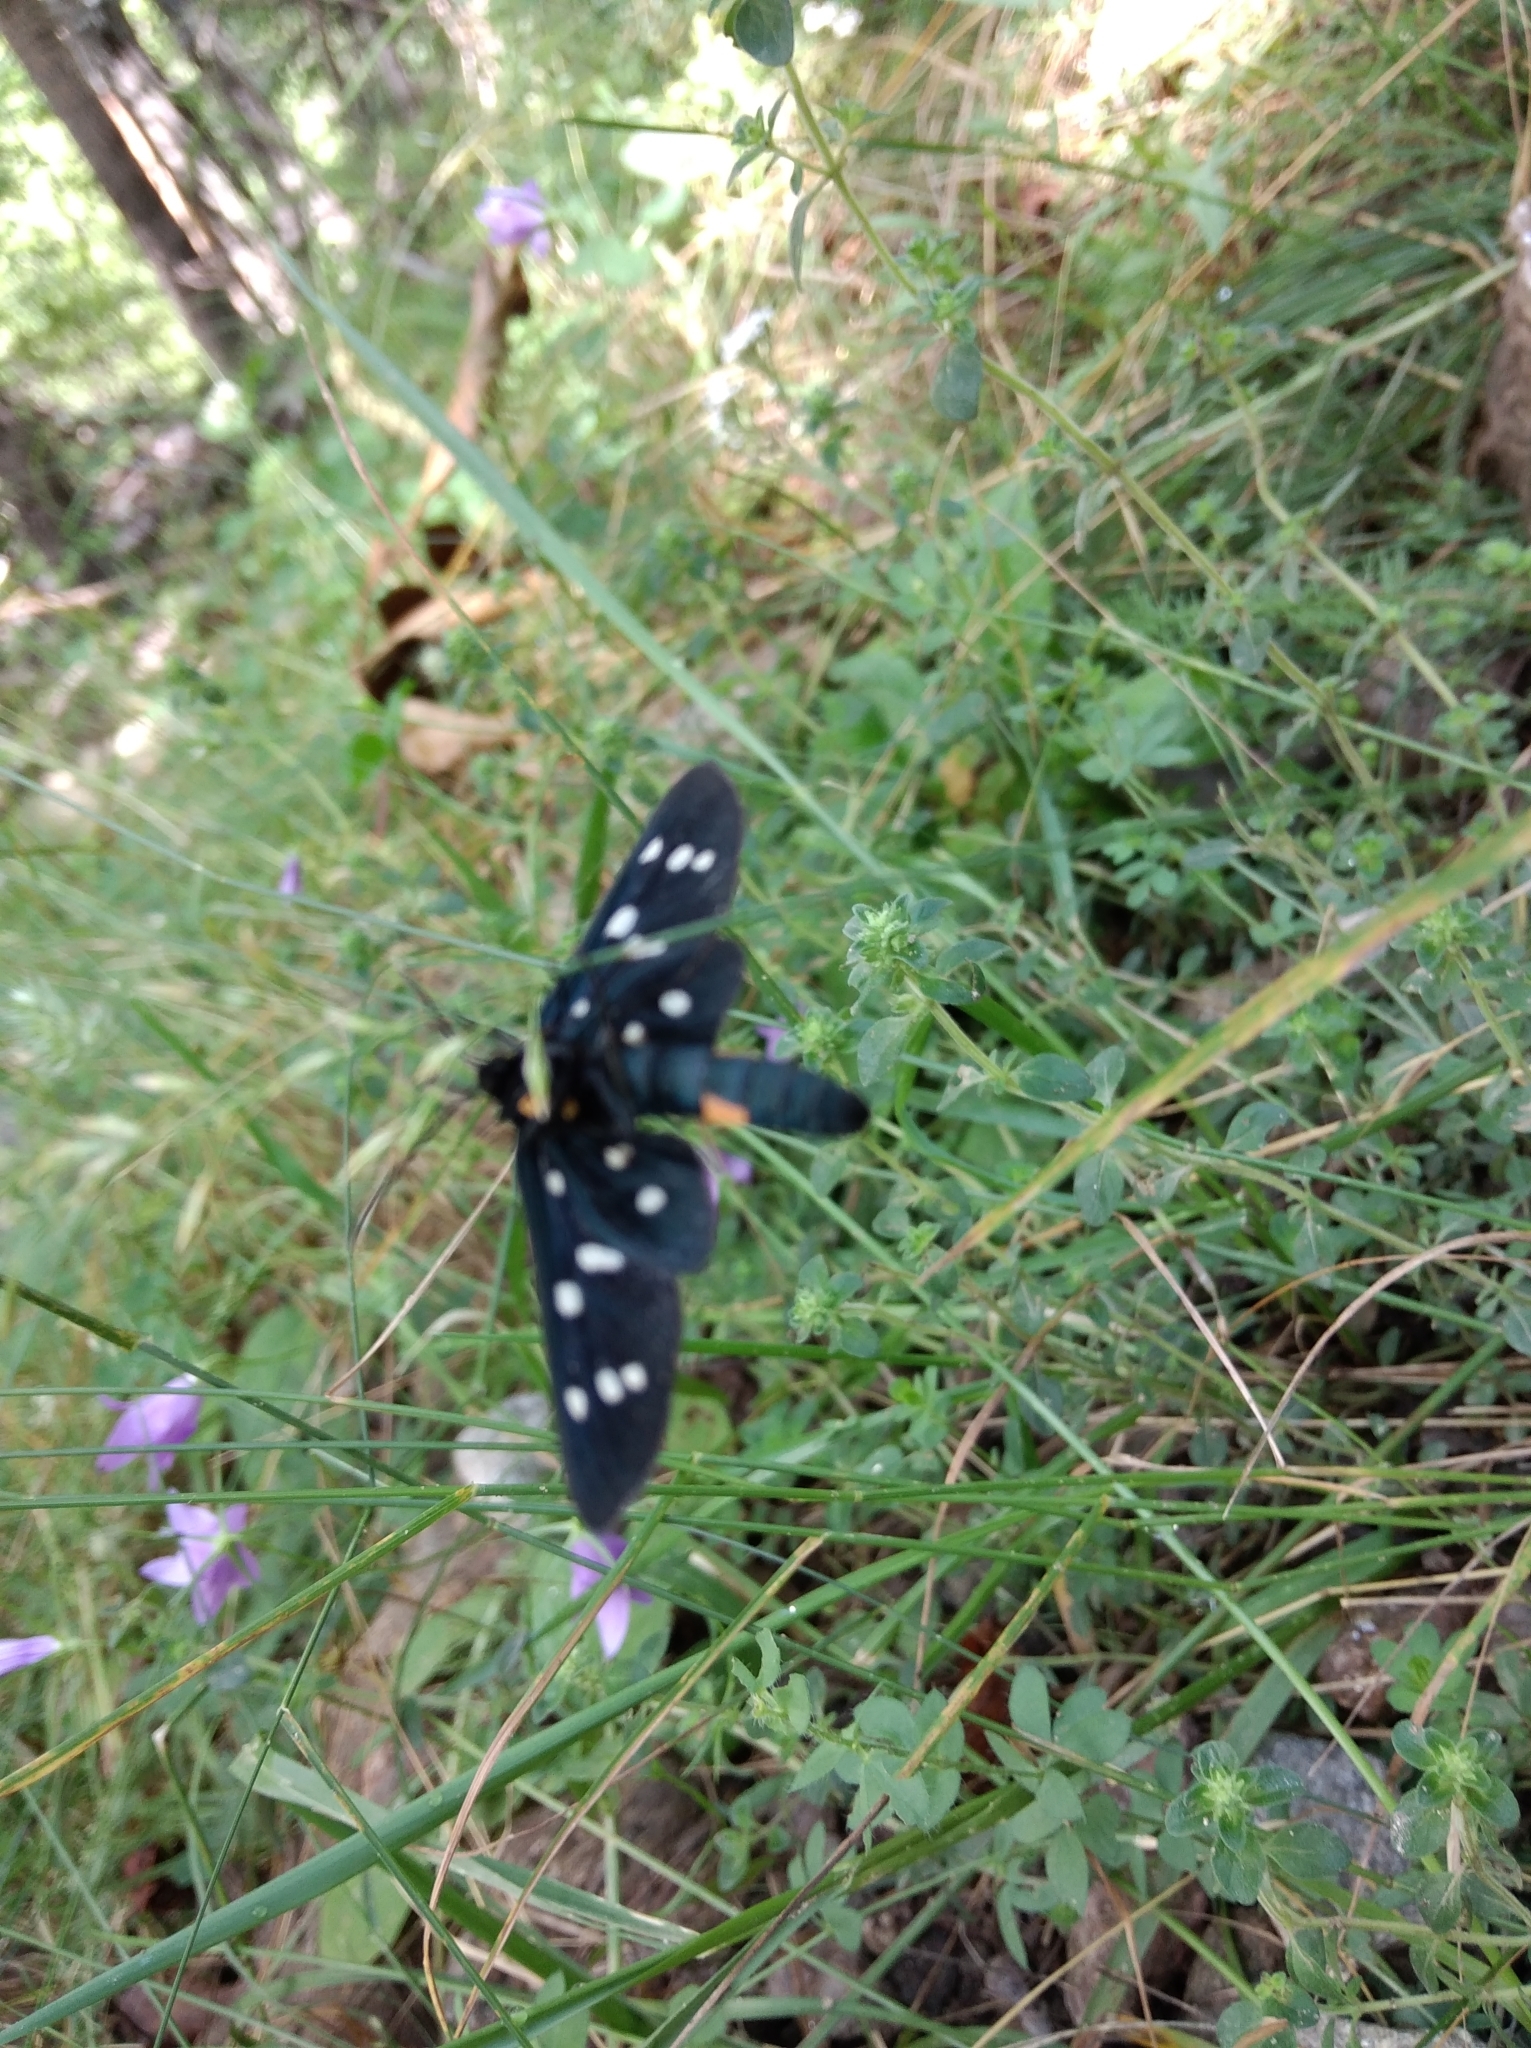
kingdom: Animalia
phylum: Arthropoda
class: Insecta
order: Lepidoptera
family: Erebidae
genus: Amata
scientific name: Amata phegea
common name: Nine-spotted
